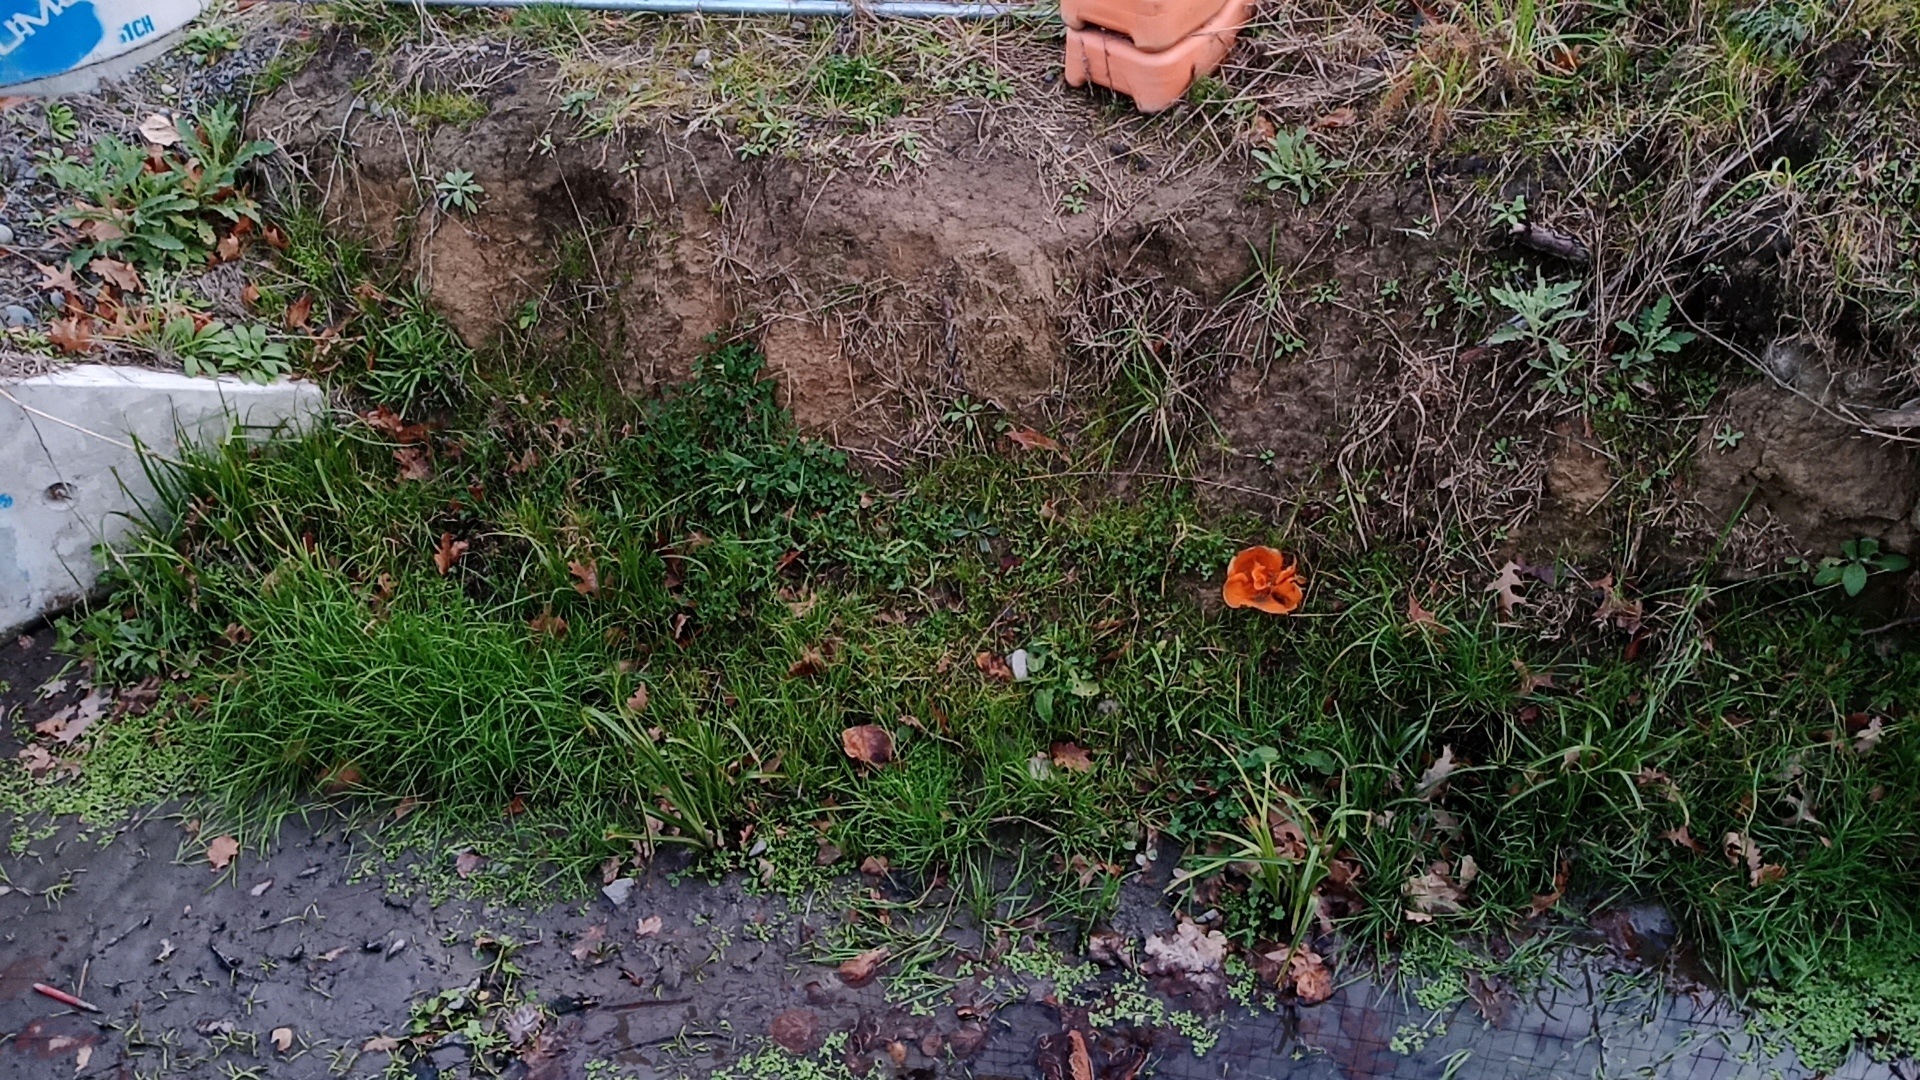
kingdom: Fungi
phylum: Ascomycota
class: Pezizomycetes
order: Pezizales
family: Pyronemataceae
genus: Aleuria
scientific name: Aleuria aurantia
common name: Orange peel fungus
